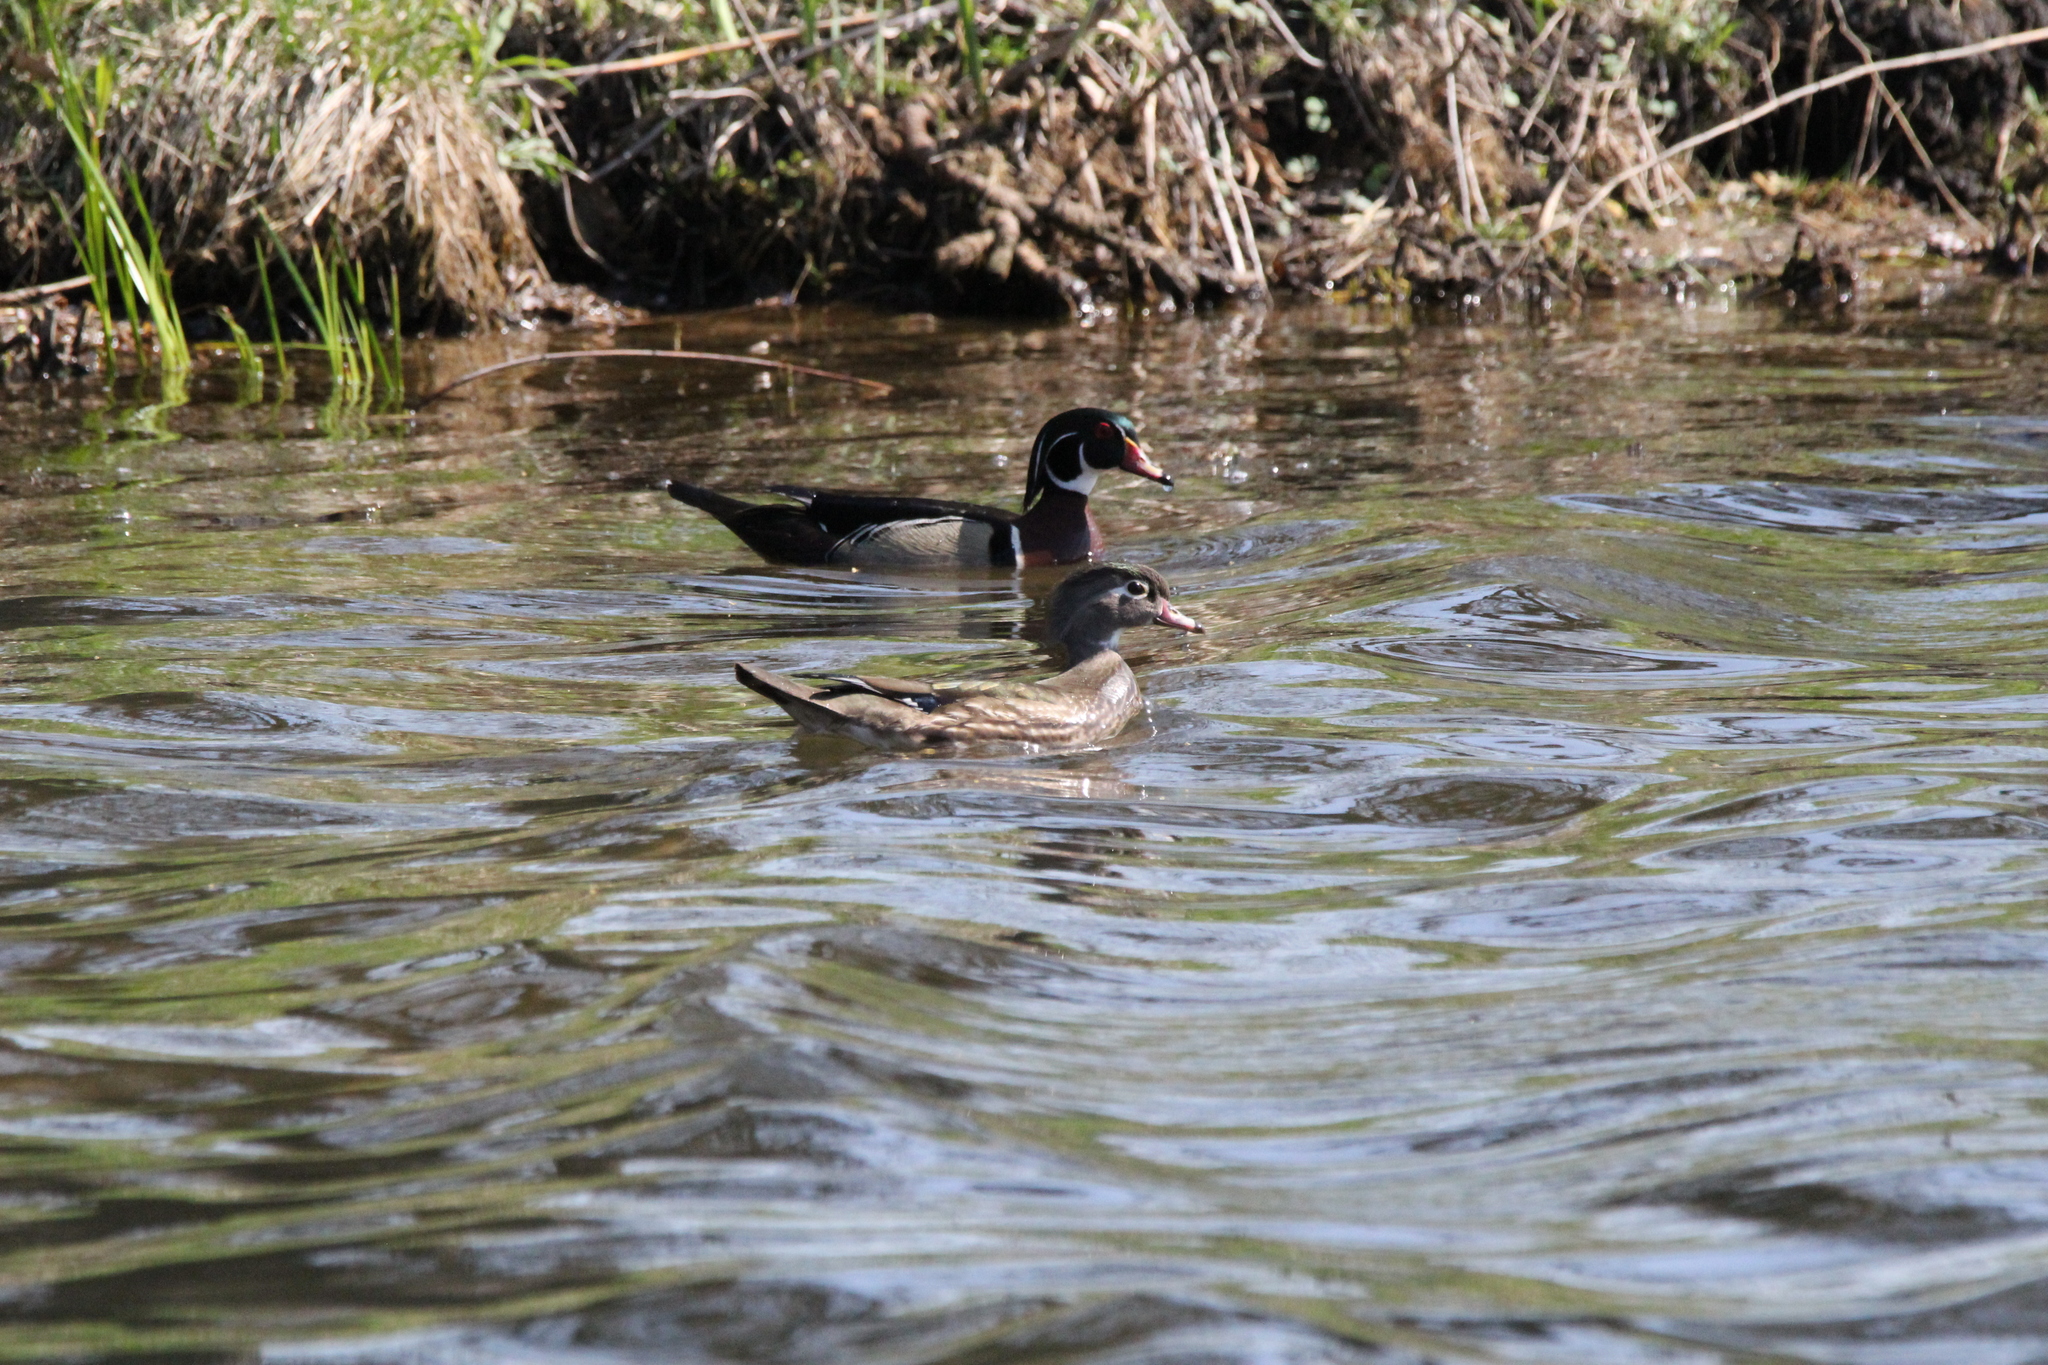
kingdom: Animalia
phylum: Chordata
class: Aves
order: Anseriformes
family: Anatidae
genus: Aix
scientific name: Aix sponsa
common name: Wood duck
